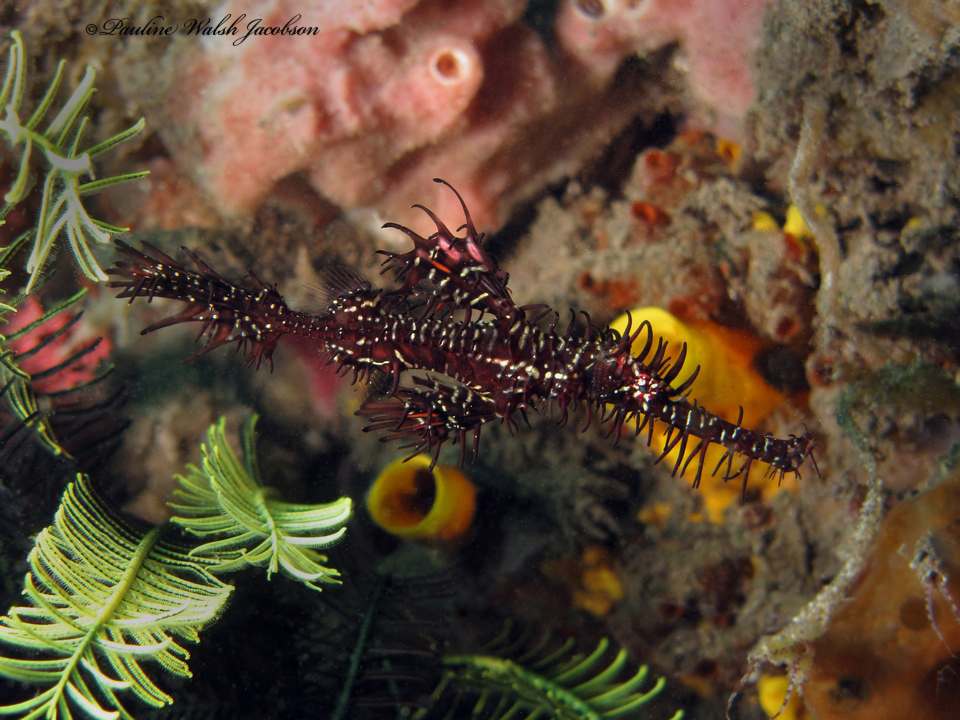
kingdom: Animalia
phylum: Chordata
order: Syngnathiformes
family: Solenostomidae
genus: Solenostomus
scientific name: Solenostomus paradoxus
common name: Ghost pipefish
